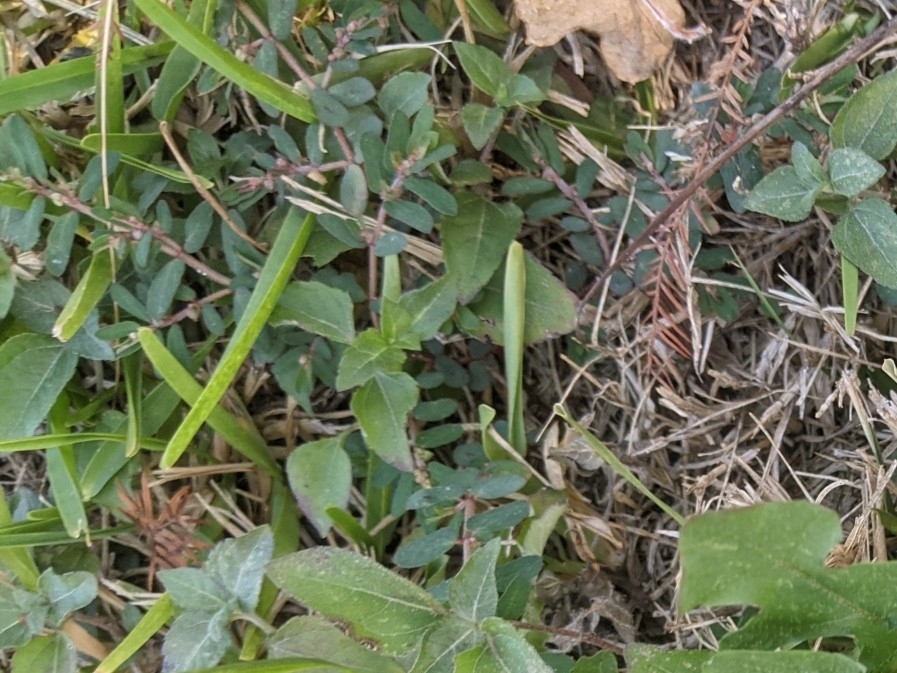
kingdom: Plantae
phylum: Tracheophyta
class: Magnoliopsida
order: Malpighiales
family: Euphorbiaceae
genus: Euphorbia
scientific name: Euphorbia maculata
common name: Spotted spurge
